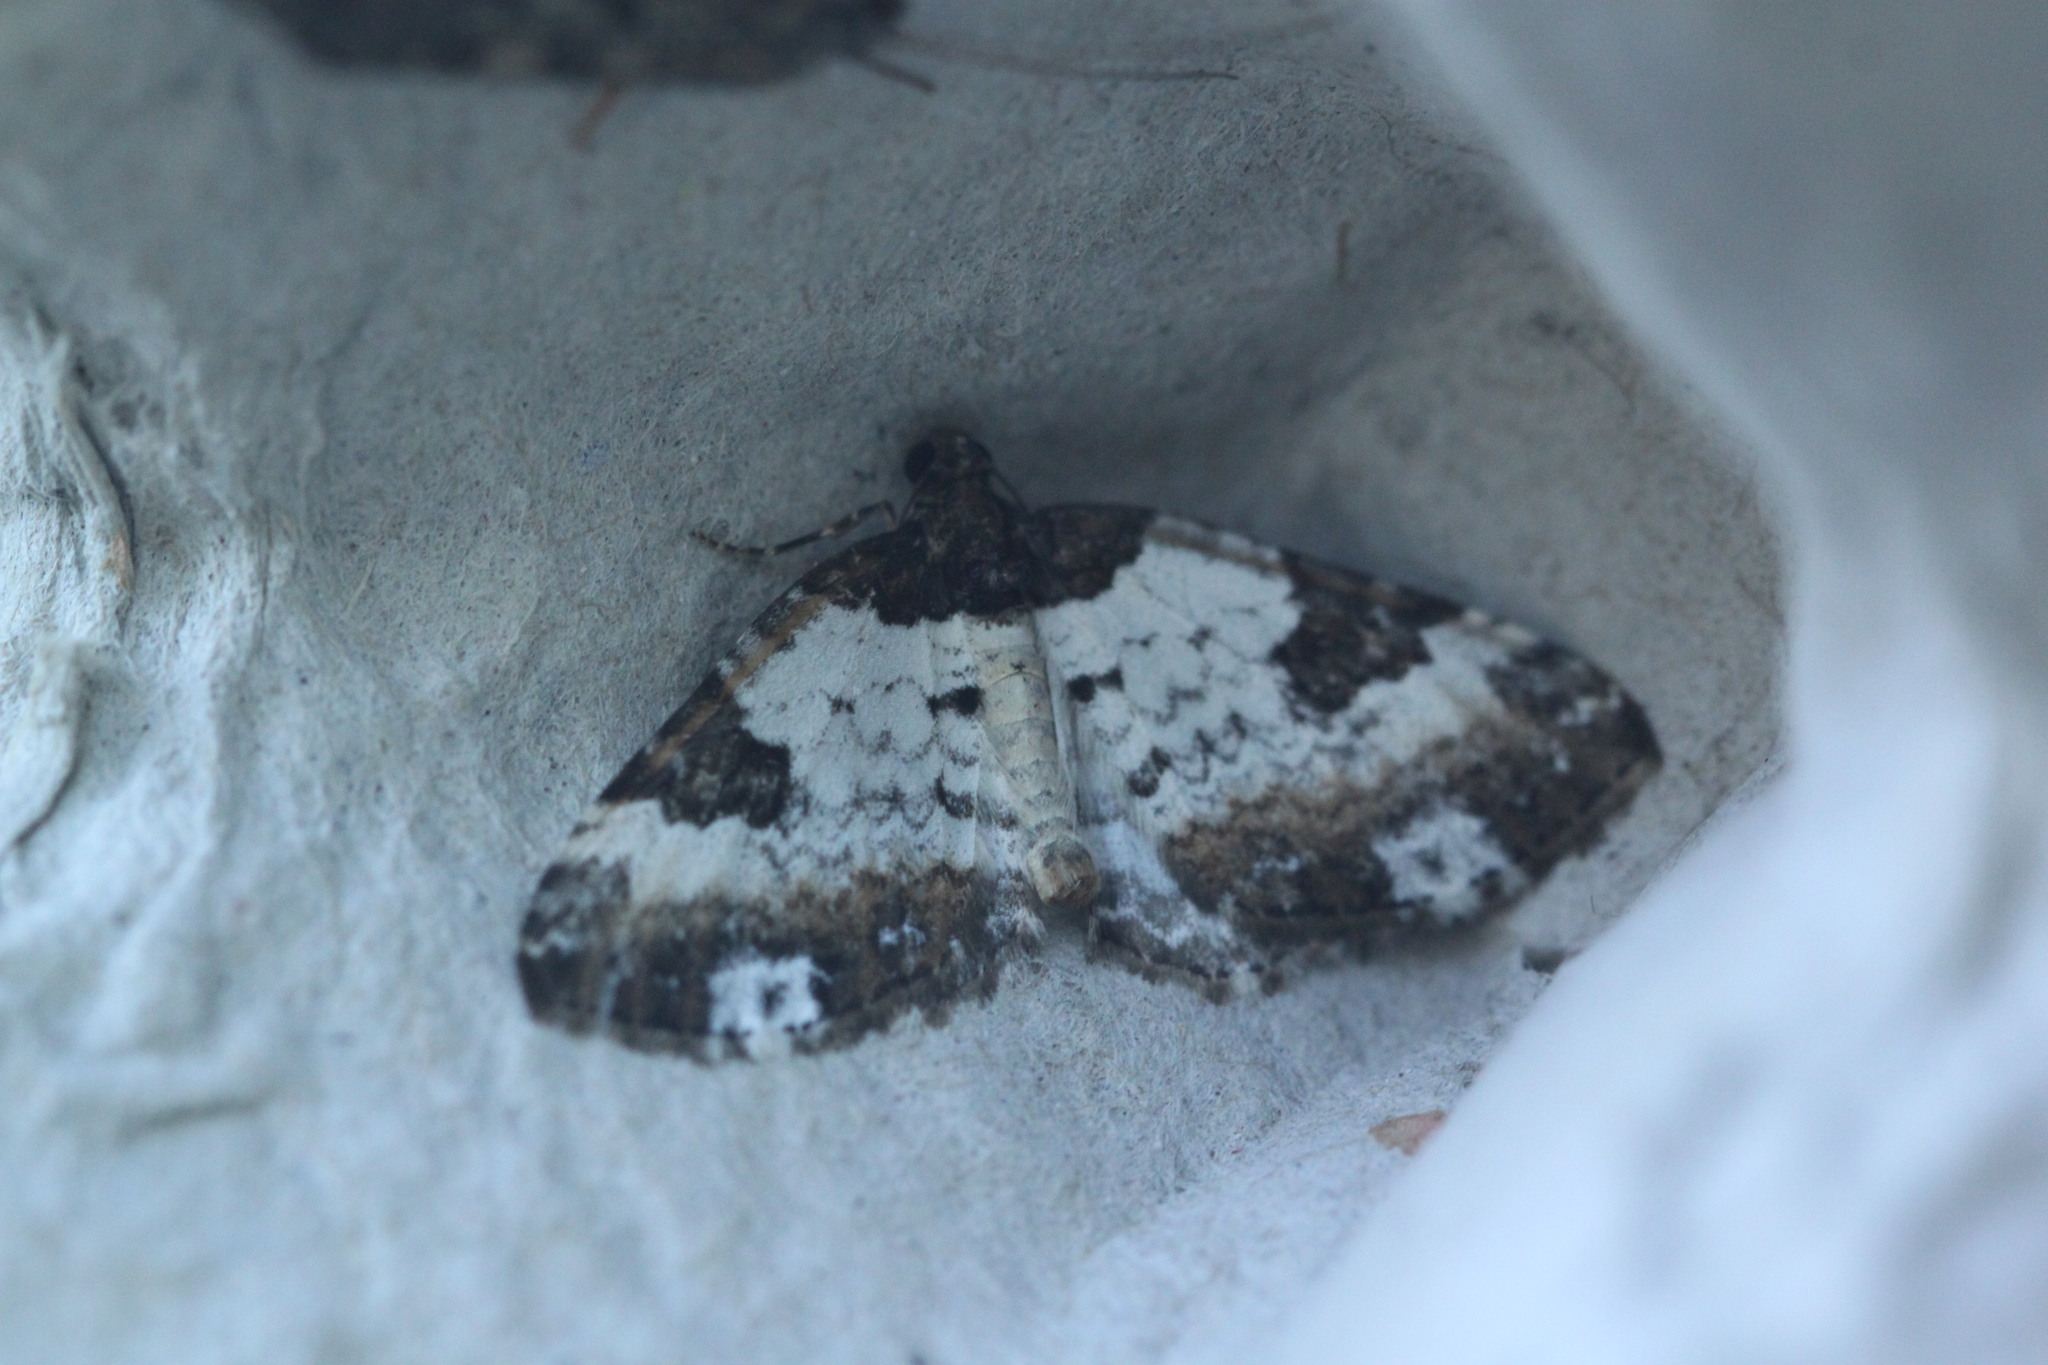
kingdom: Animalia
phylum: Arthropoda
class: Insecta
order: Lepidoptera
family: Geometridae
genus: Melanthia
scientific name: Melanthia procellata
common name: Pretty chalk carpet
